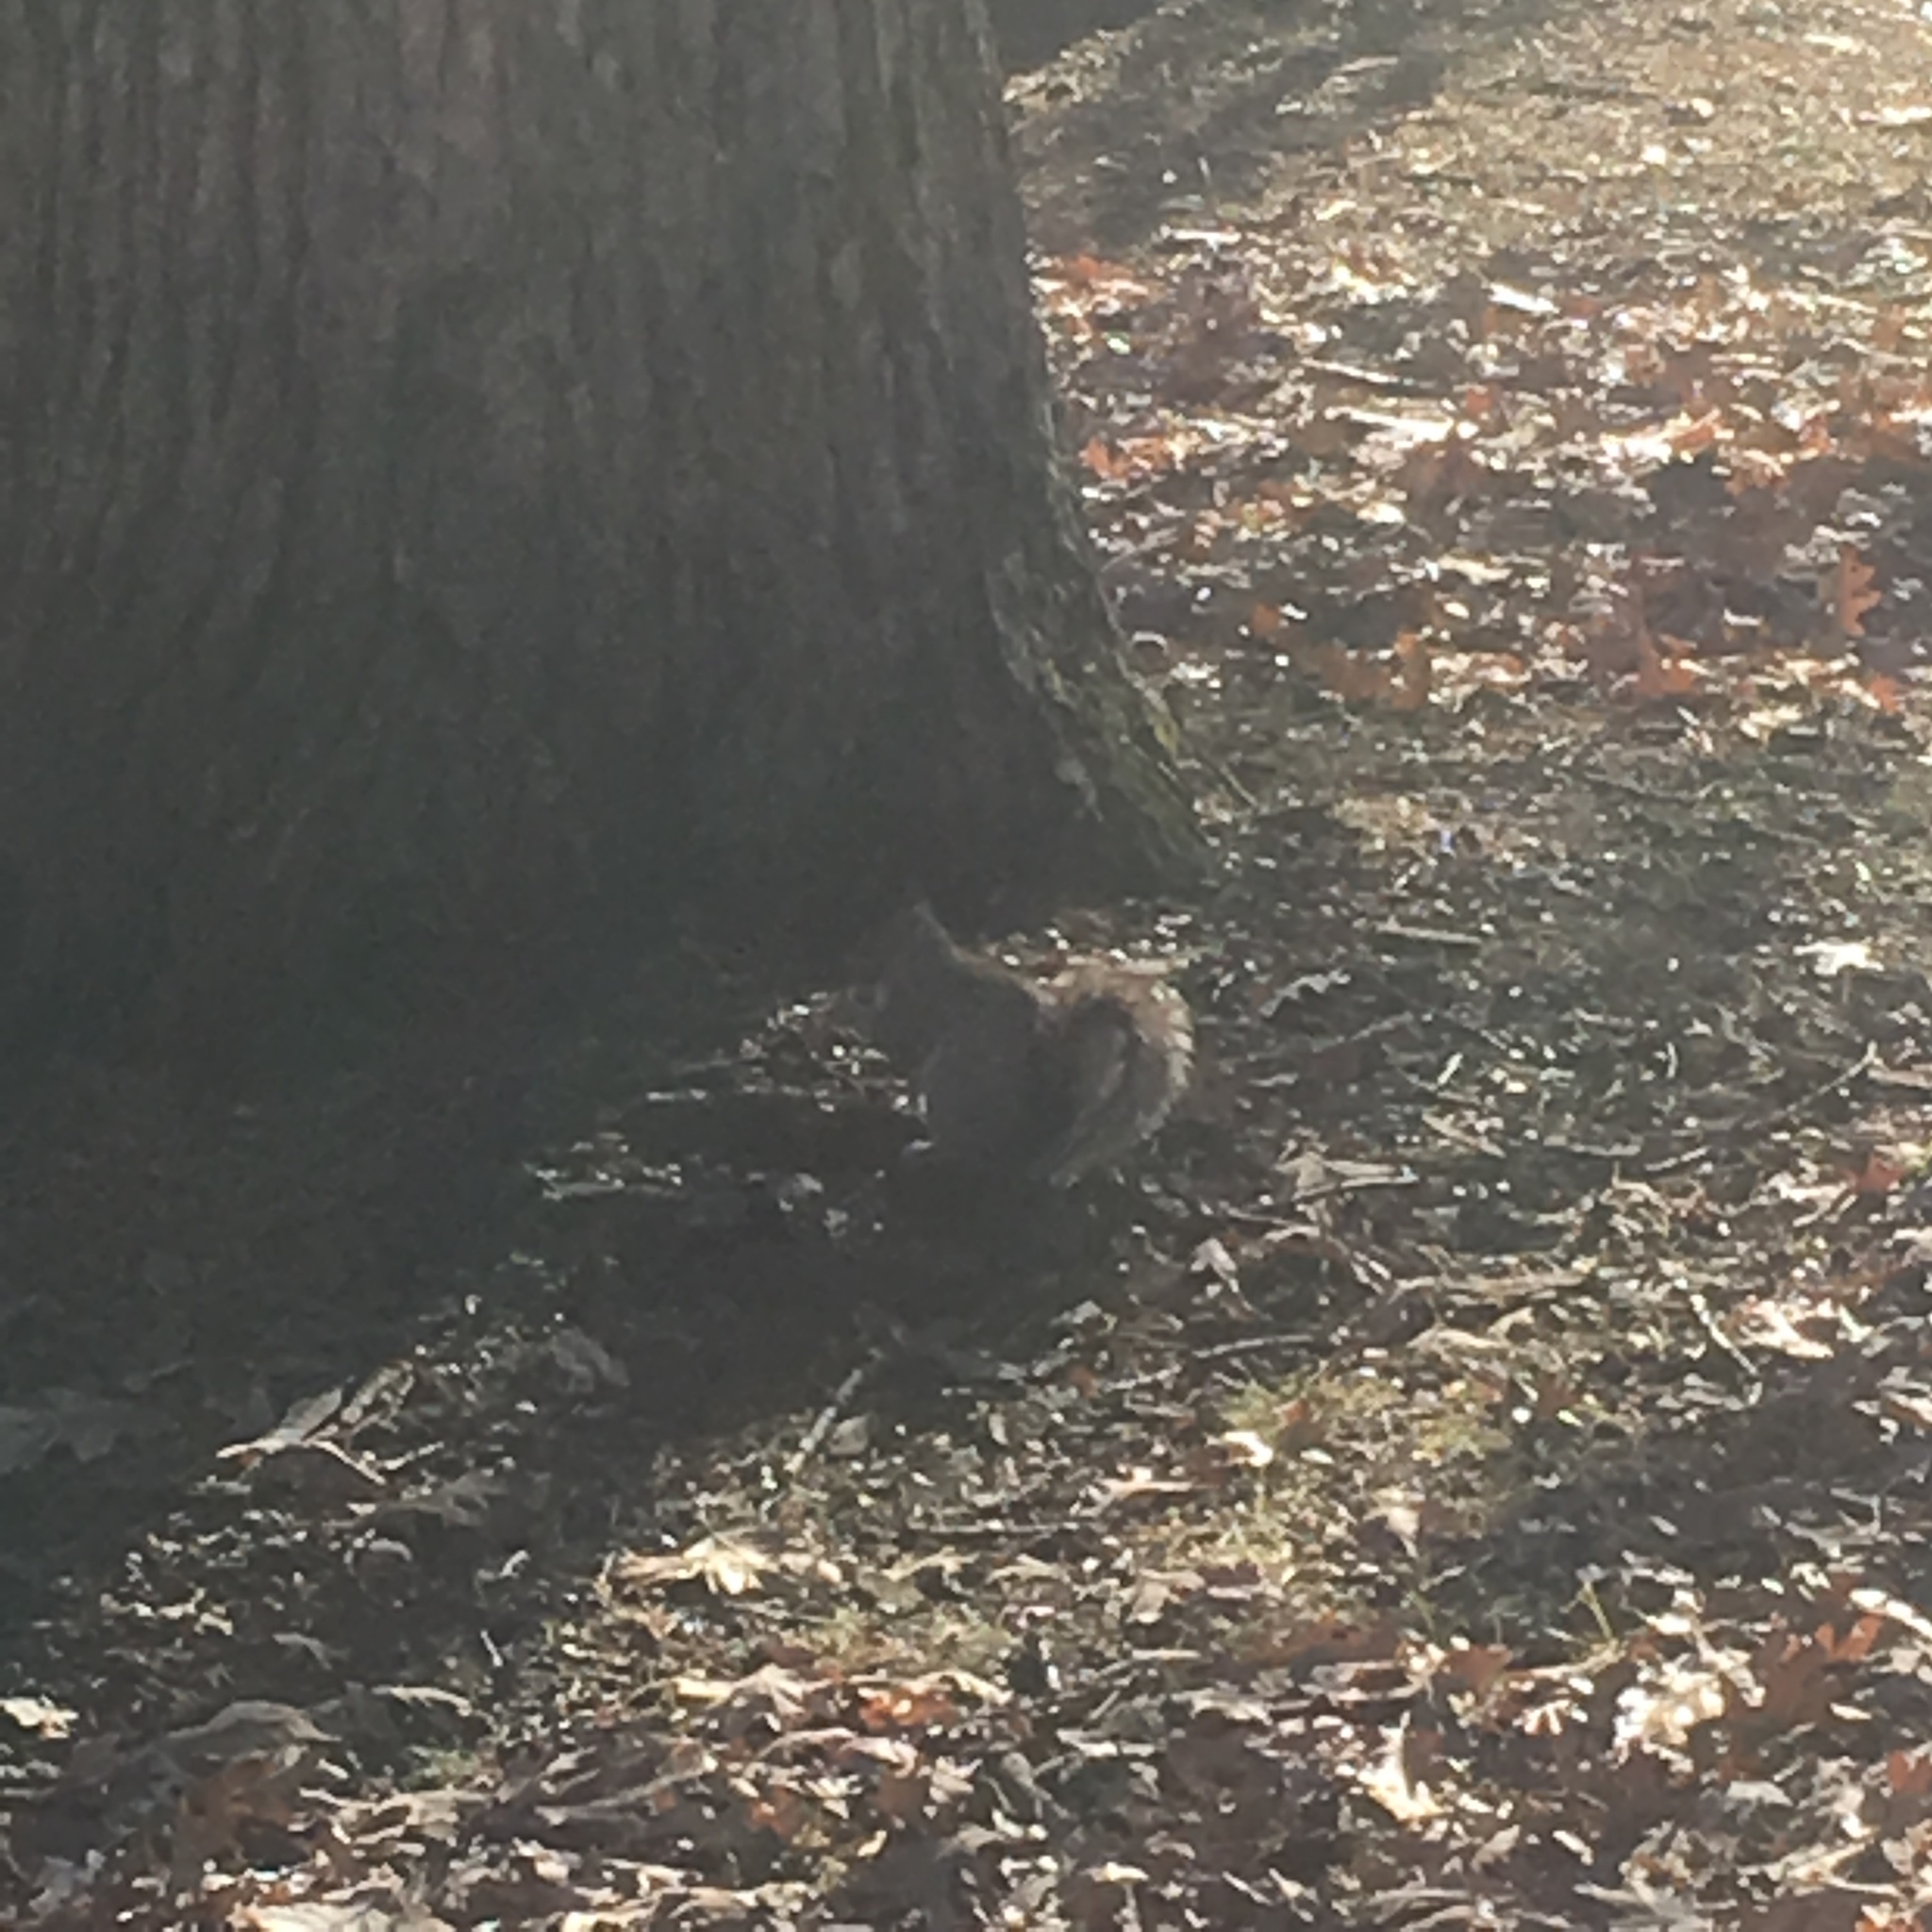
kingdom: Animalia
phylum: Chordata
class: Mammalia
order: Rodentia
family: Sciuridae
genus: Sciurus
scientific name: Sciurus carolinensis
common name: Eastern gray squirrel
